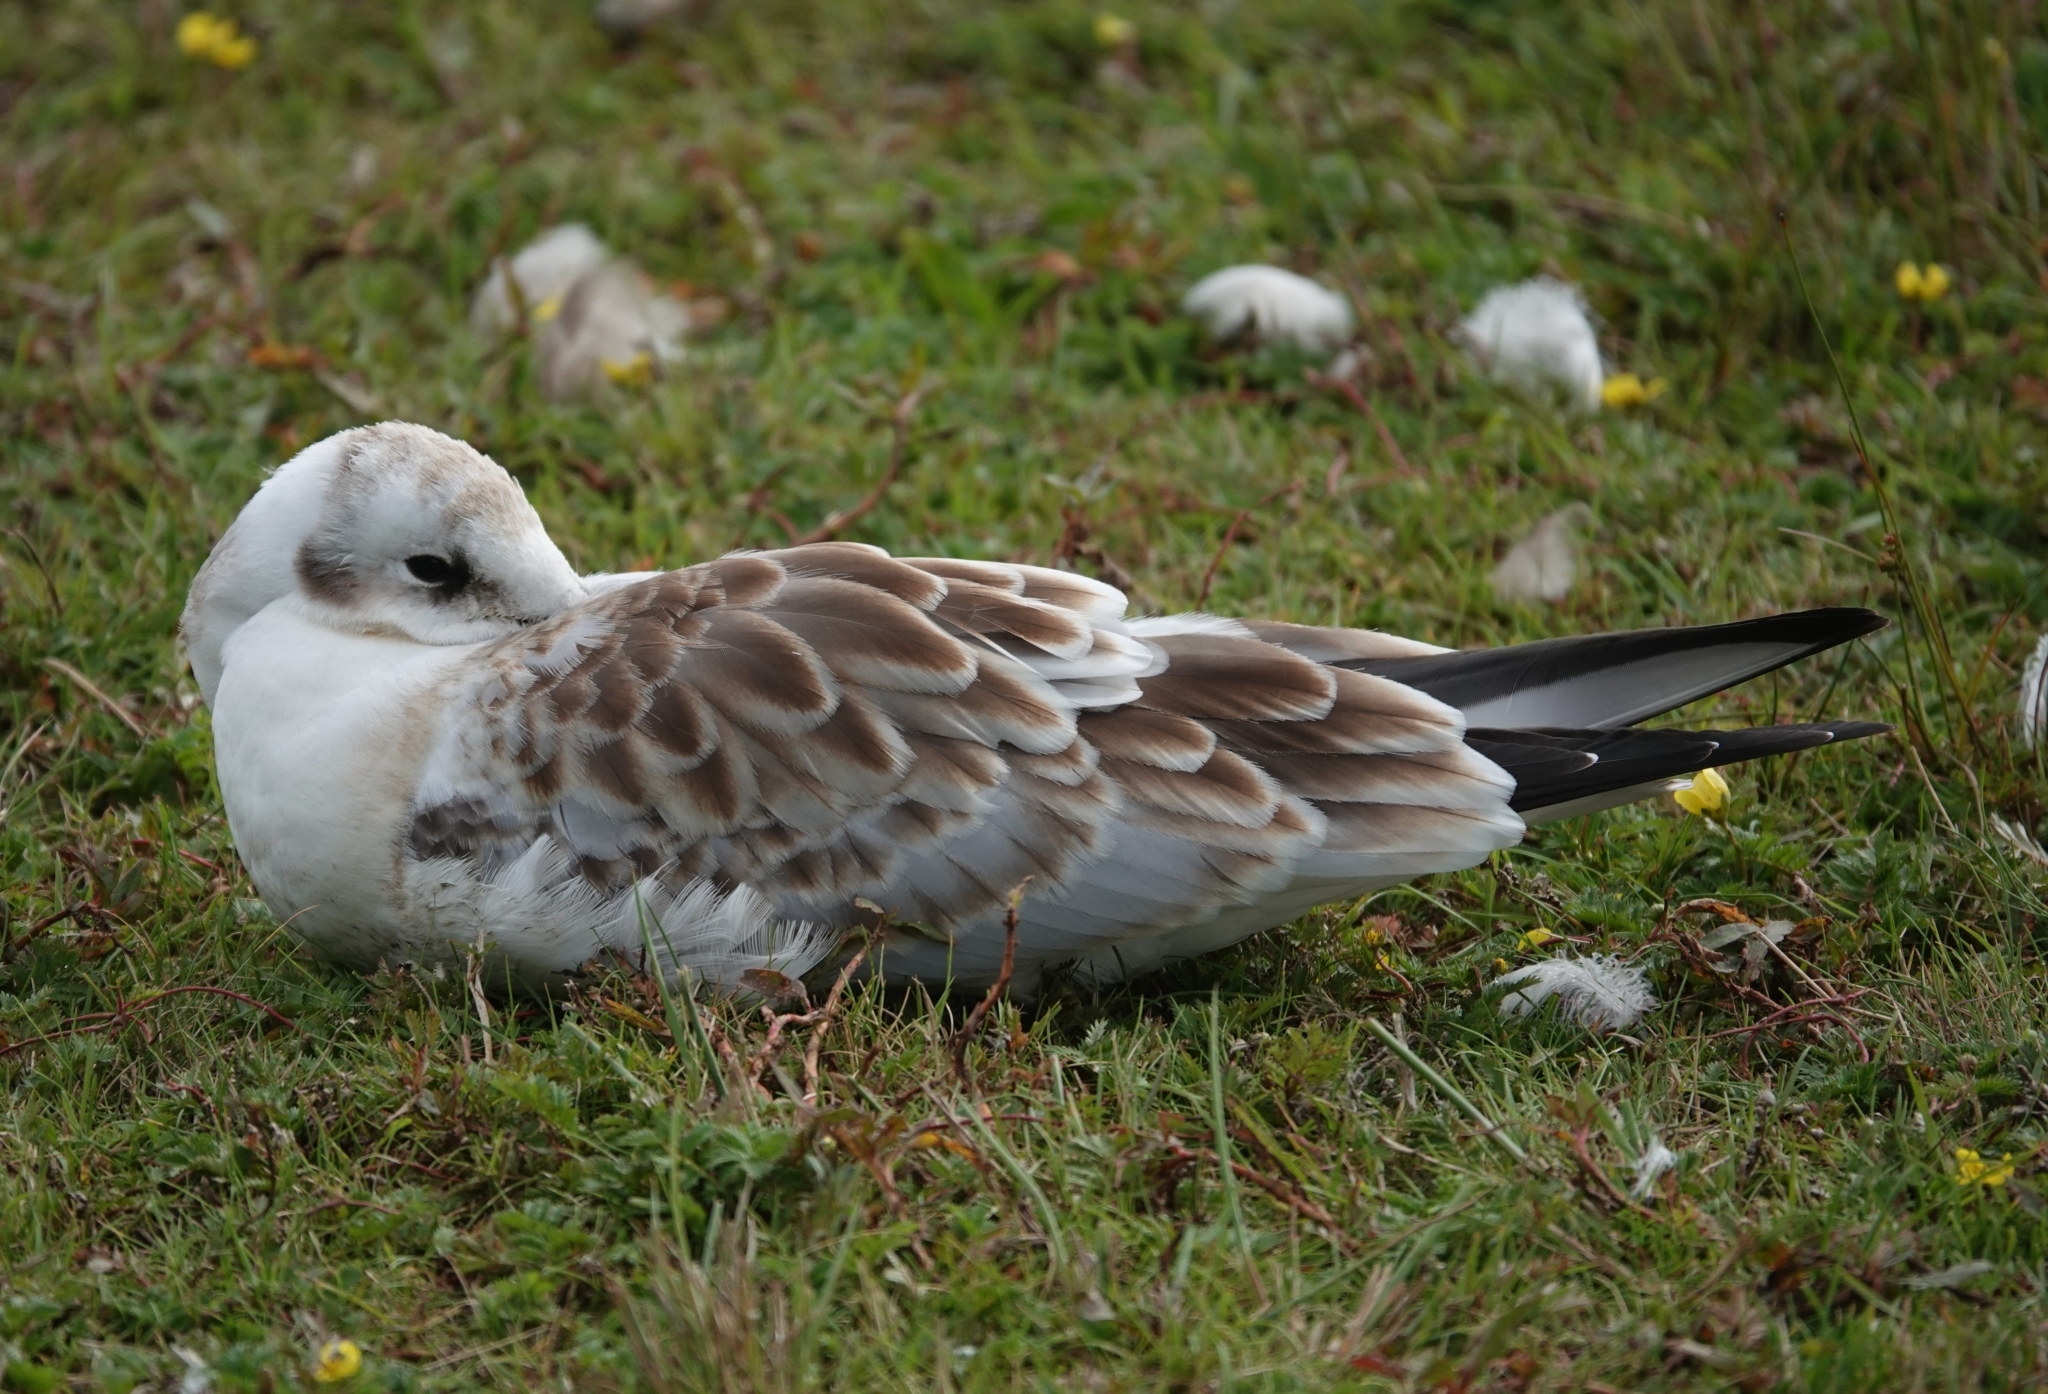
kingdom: Animalia
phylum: Chordata
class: Aves
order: Charadriiformes
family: Laridae
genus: Chroicocephalus
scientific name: Chroicocephalus ridibundus
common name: Black-headed gull
